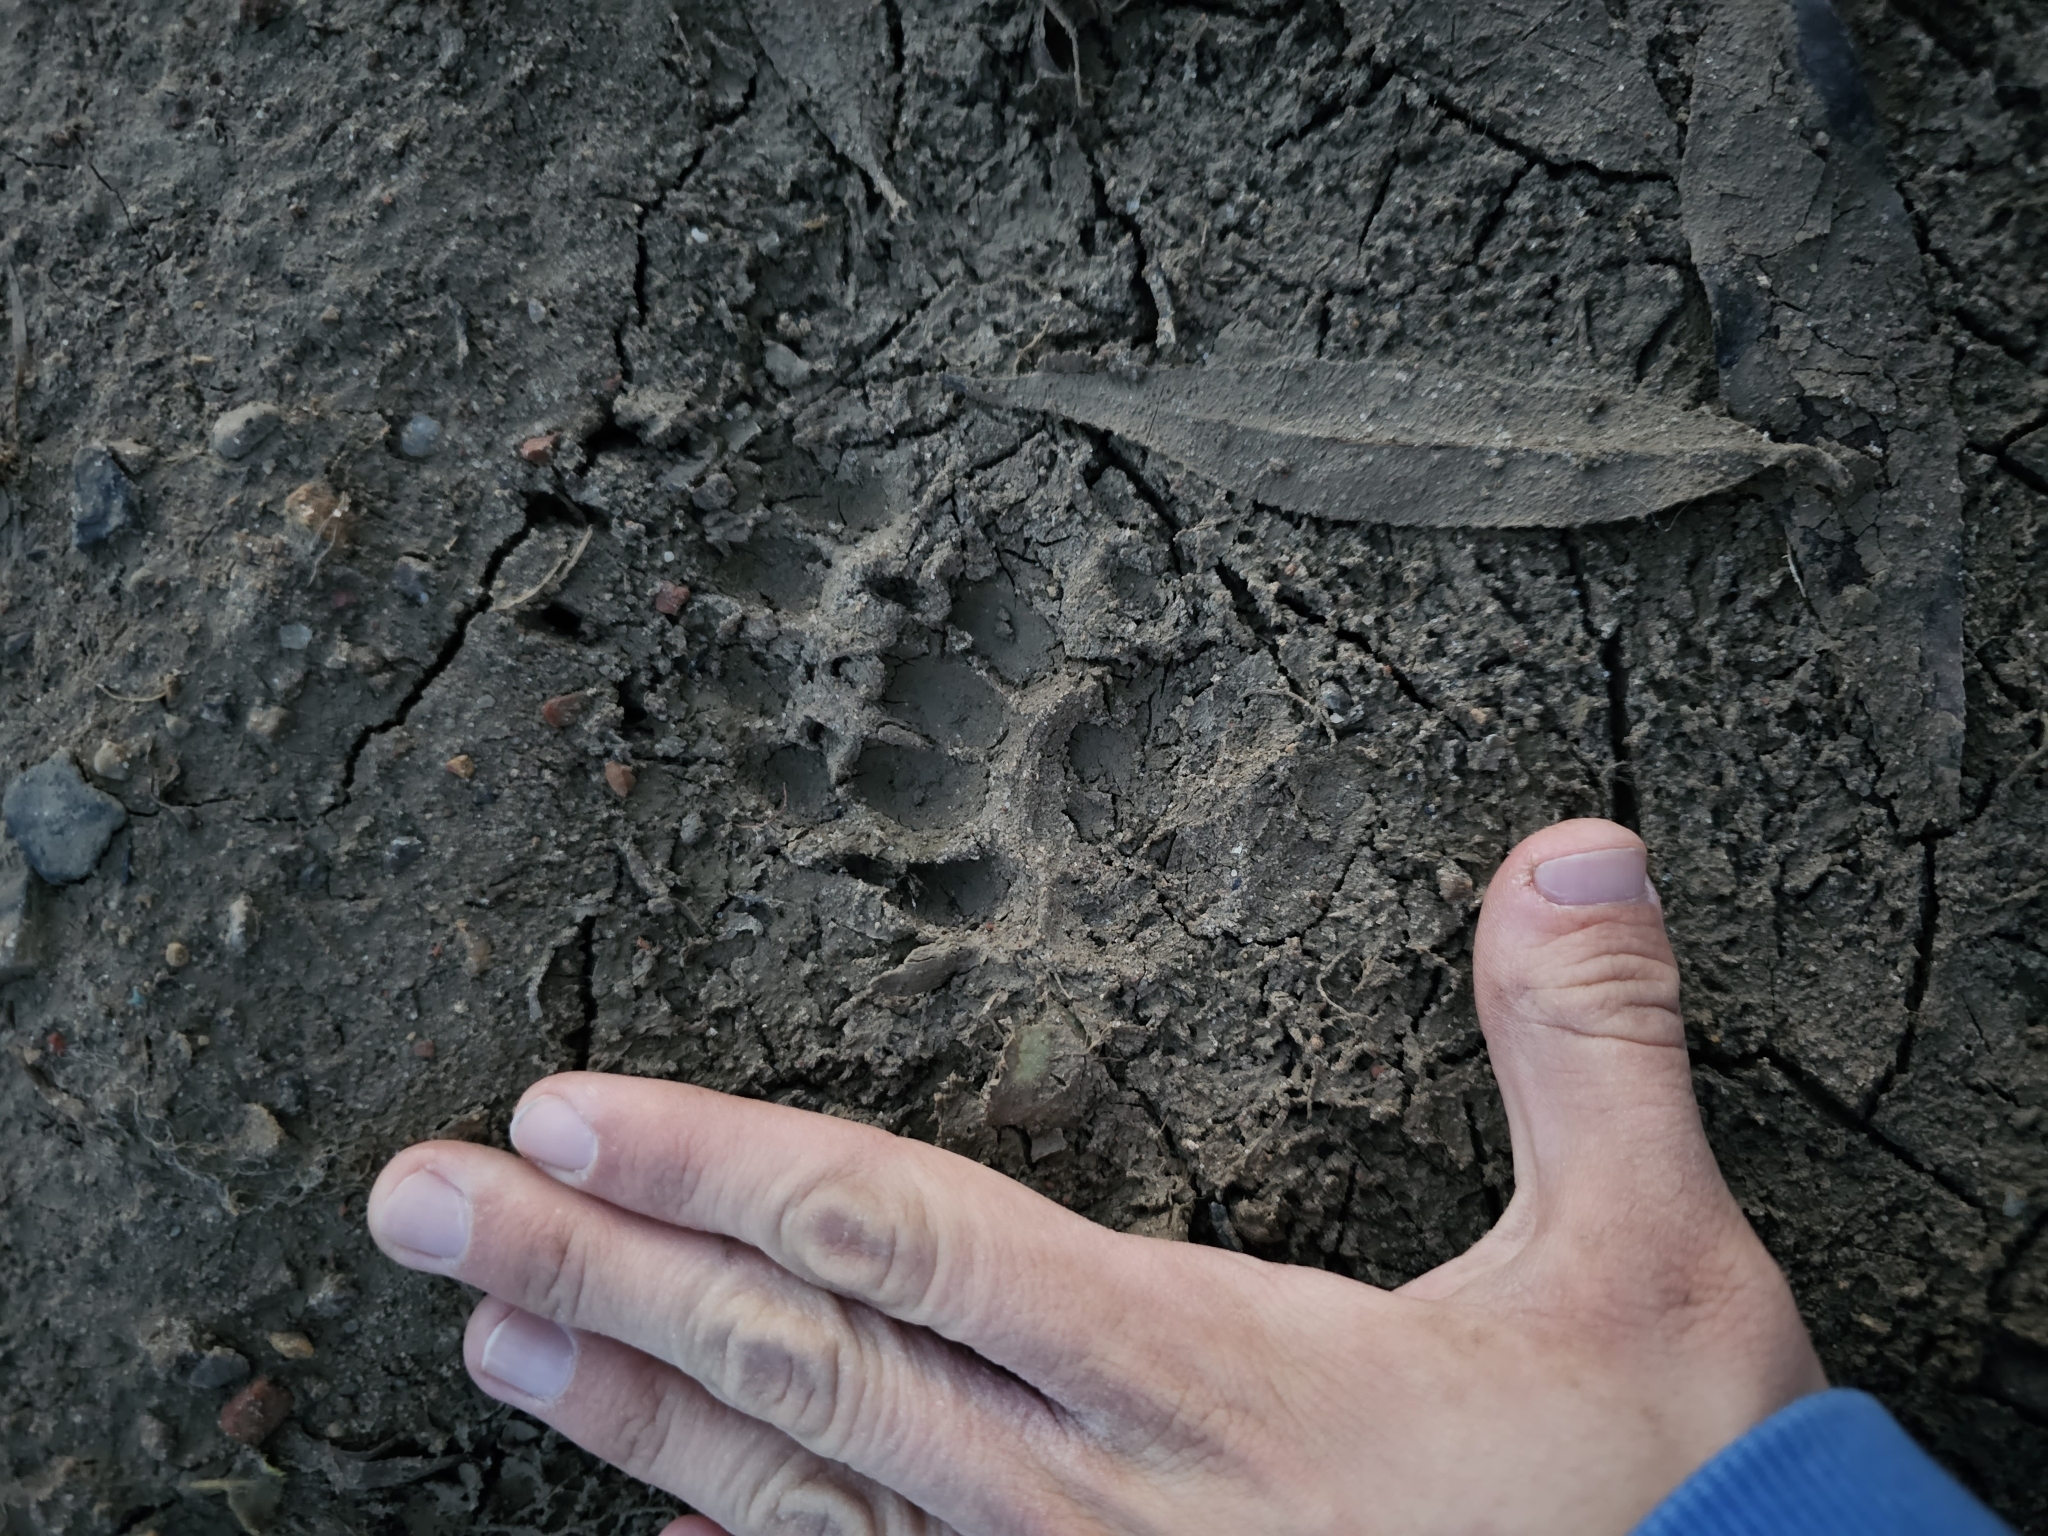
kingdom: Animalia
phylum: Chordata
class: Mammalia
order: Carnivora
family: Mustelidae
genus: Meles
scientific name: Meles meles
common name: Eurasian badger
